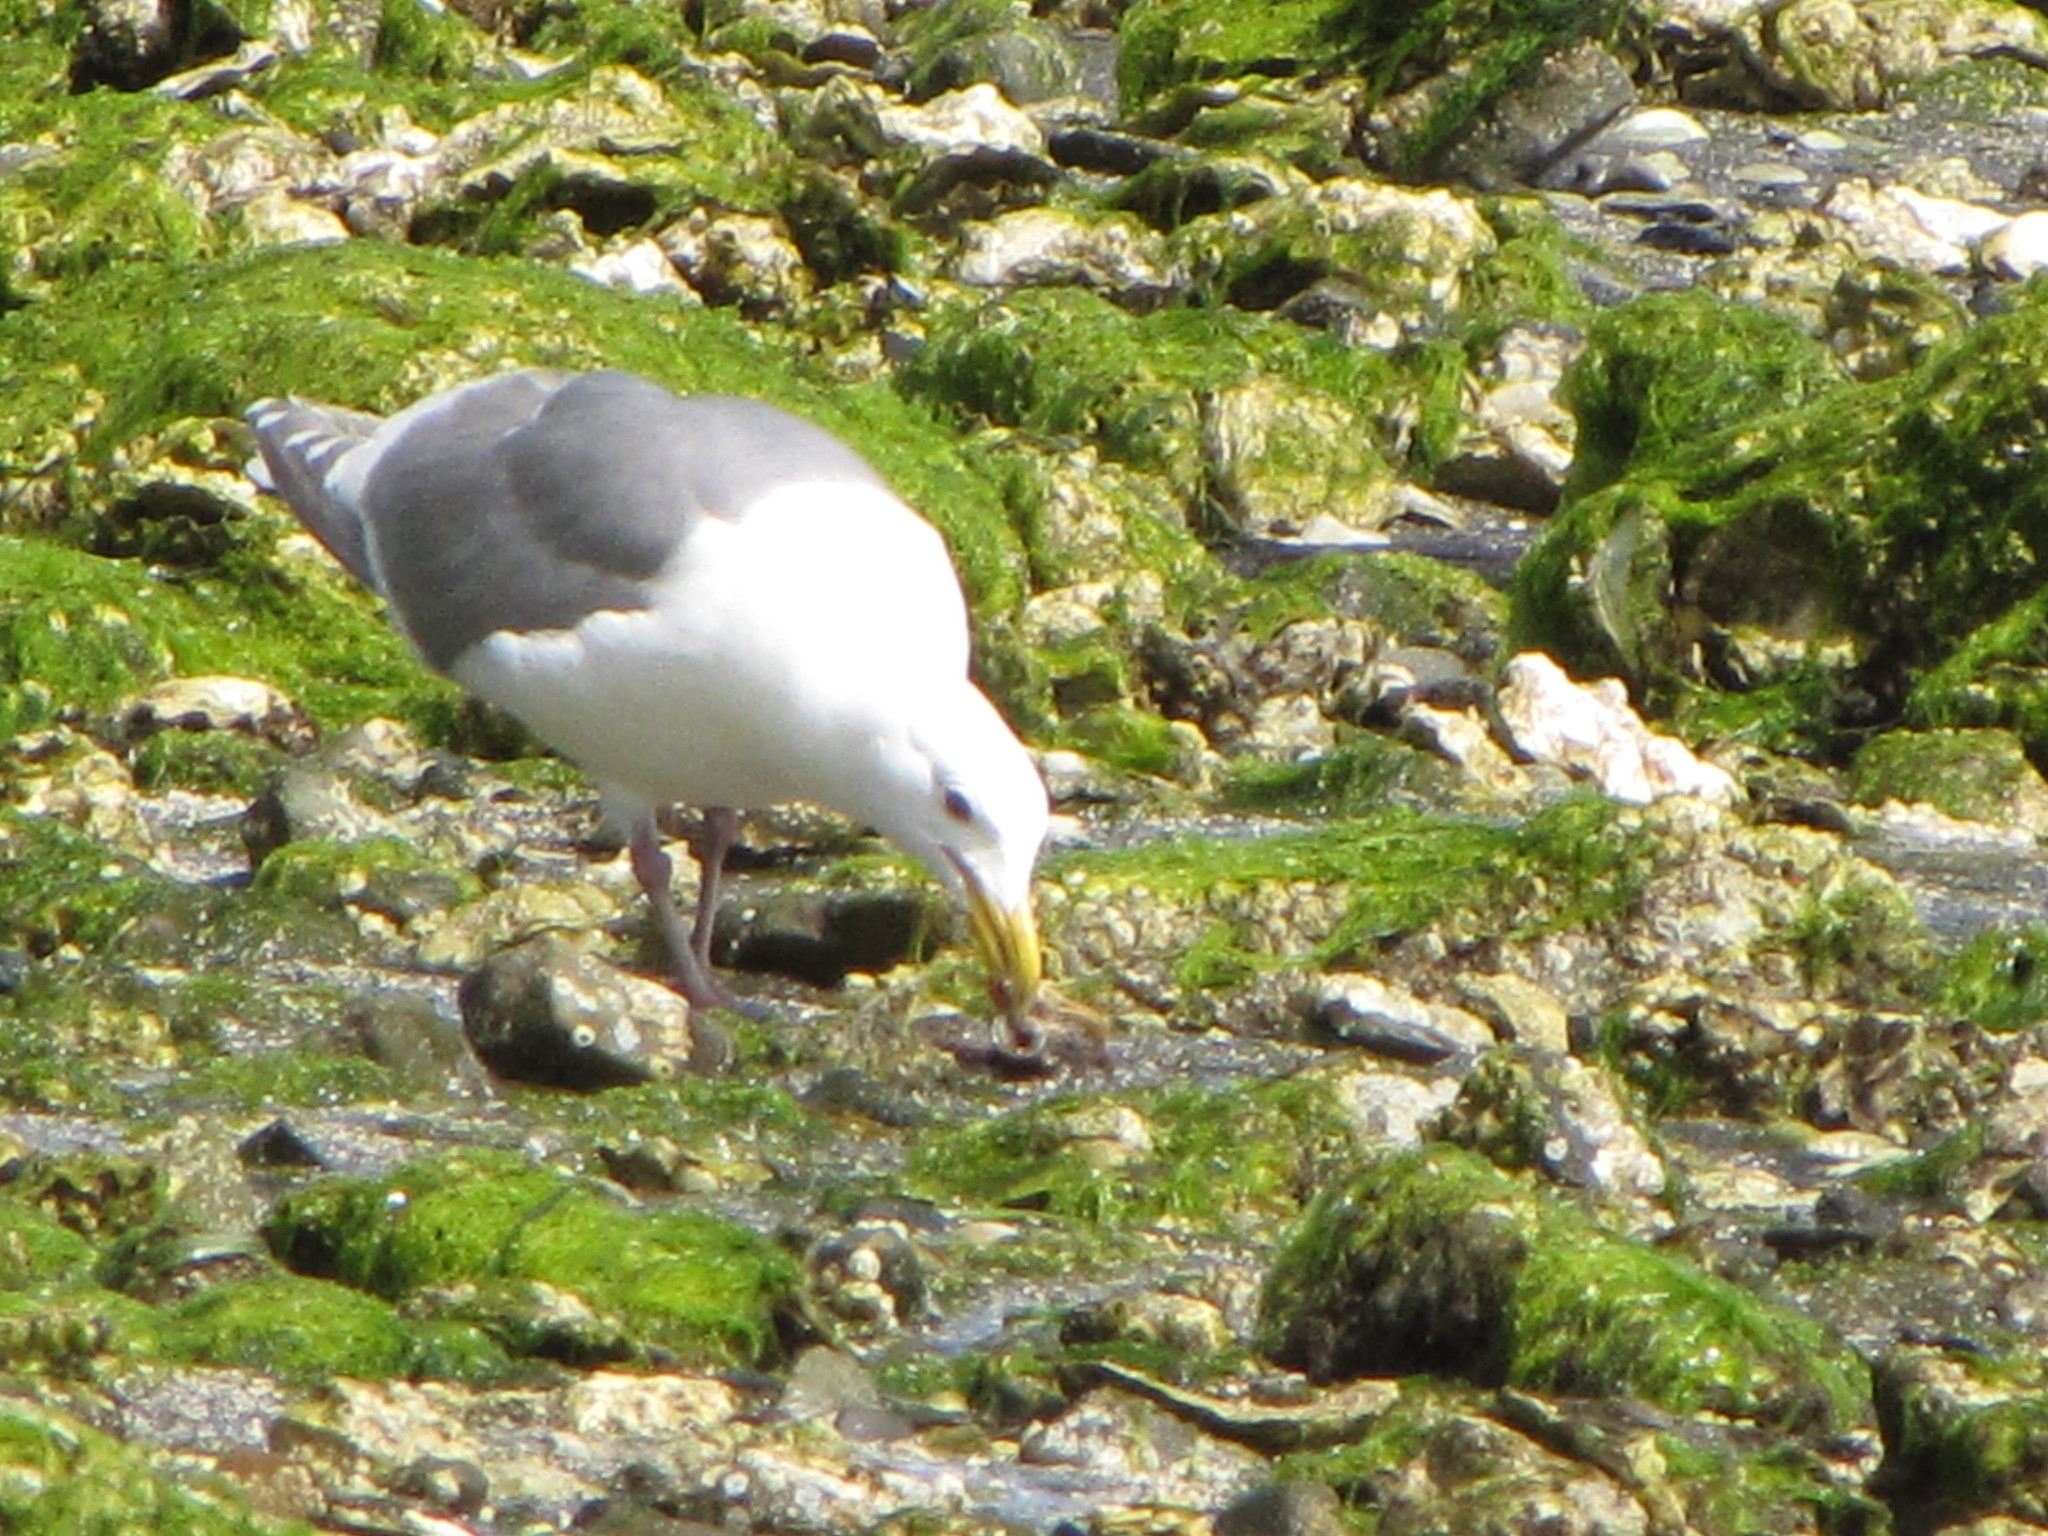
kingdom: Animalia
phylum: Chordata
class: Aves
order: Charadriiformes
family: Laridae
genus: Larus
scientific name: Larus glaucescens
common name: Glaucous-winged gull
